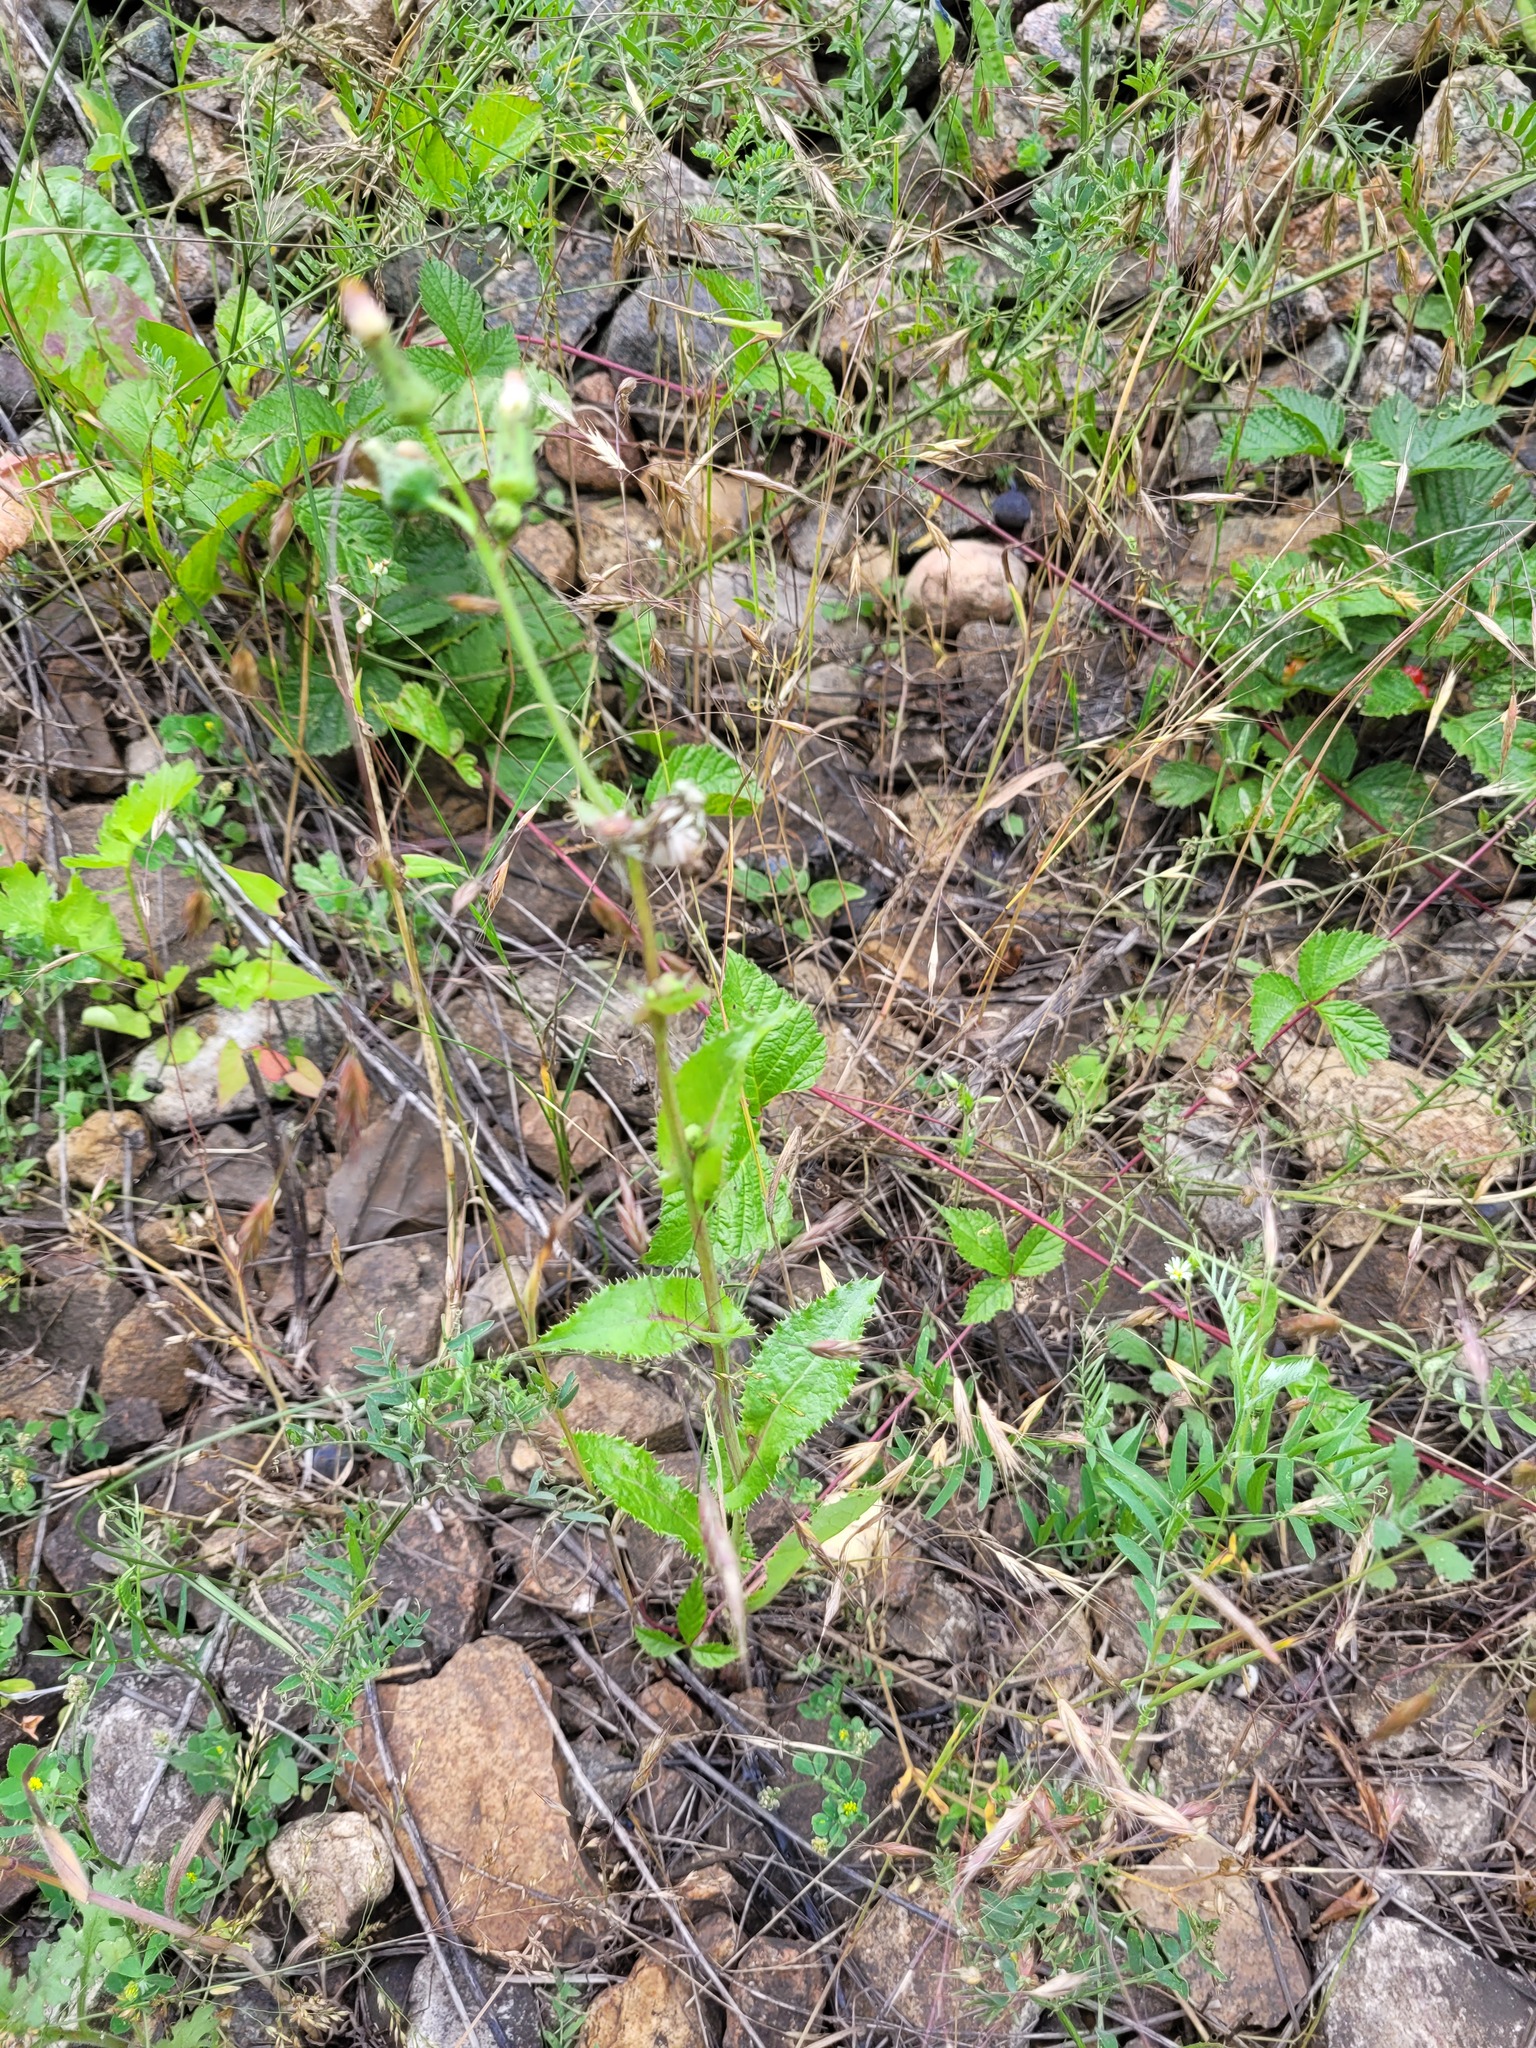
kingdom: Plantae
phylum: Tracheophyta
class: Magnoliopsida
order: Asterales
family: Asteraceae
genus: Sonchus
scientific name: Sonchus asper
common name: Prickly sow-thistle
